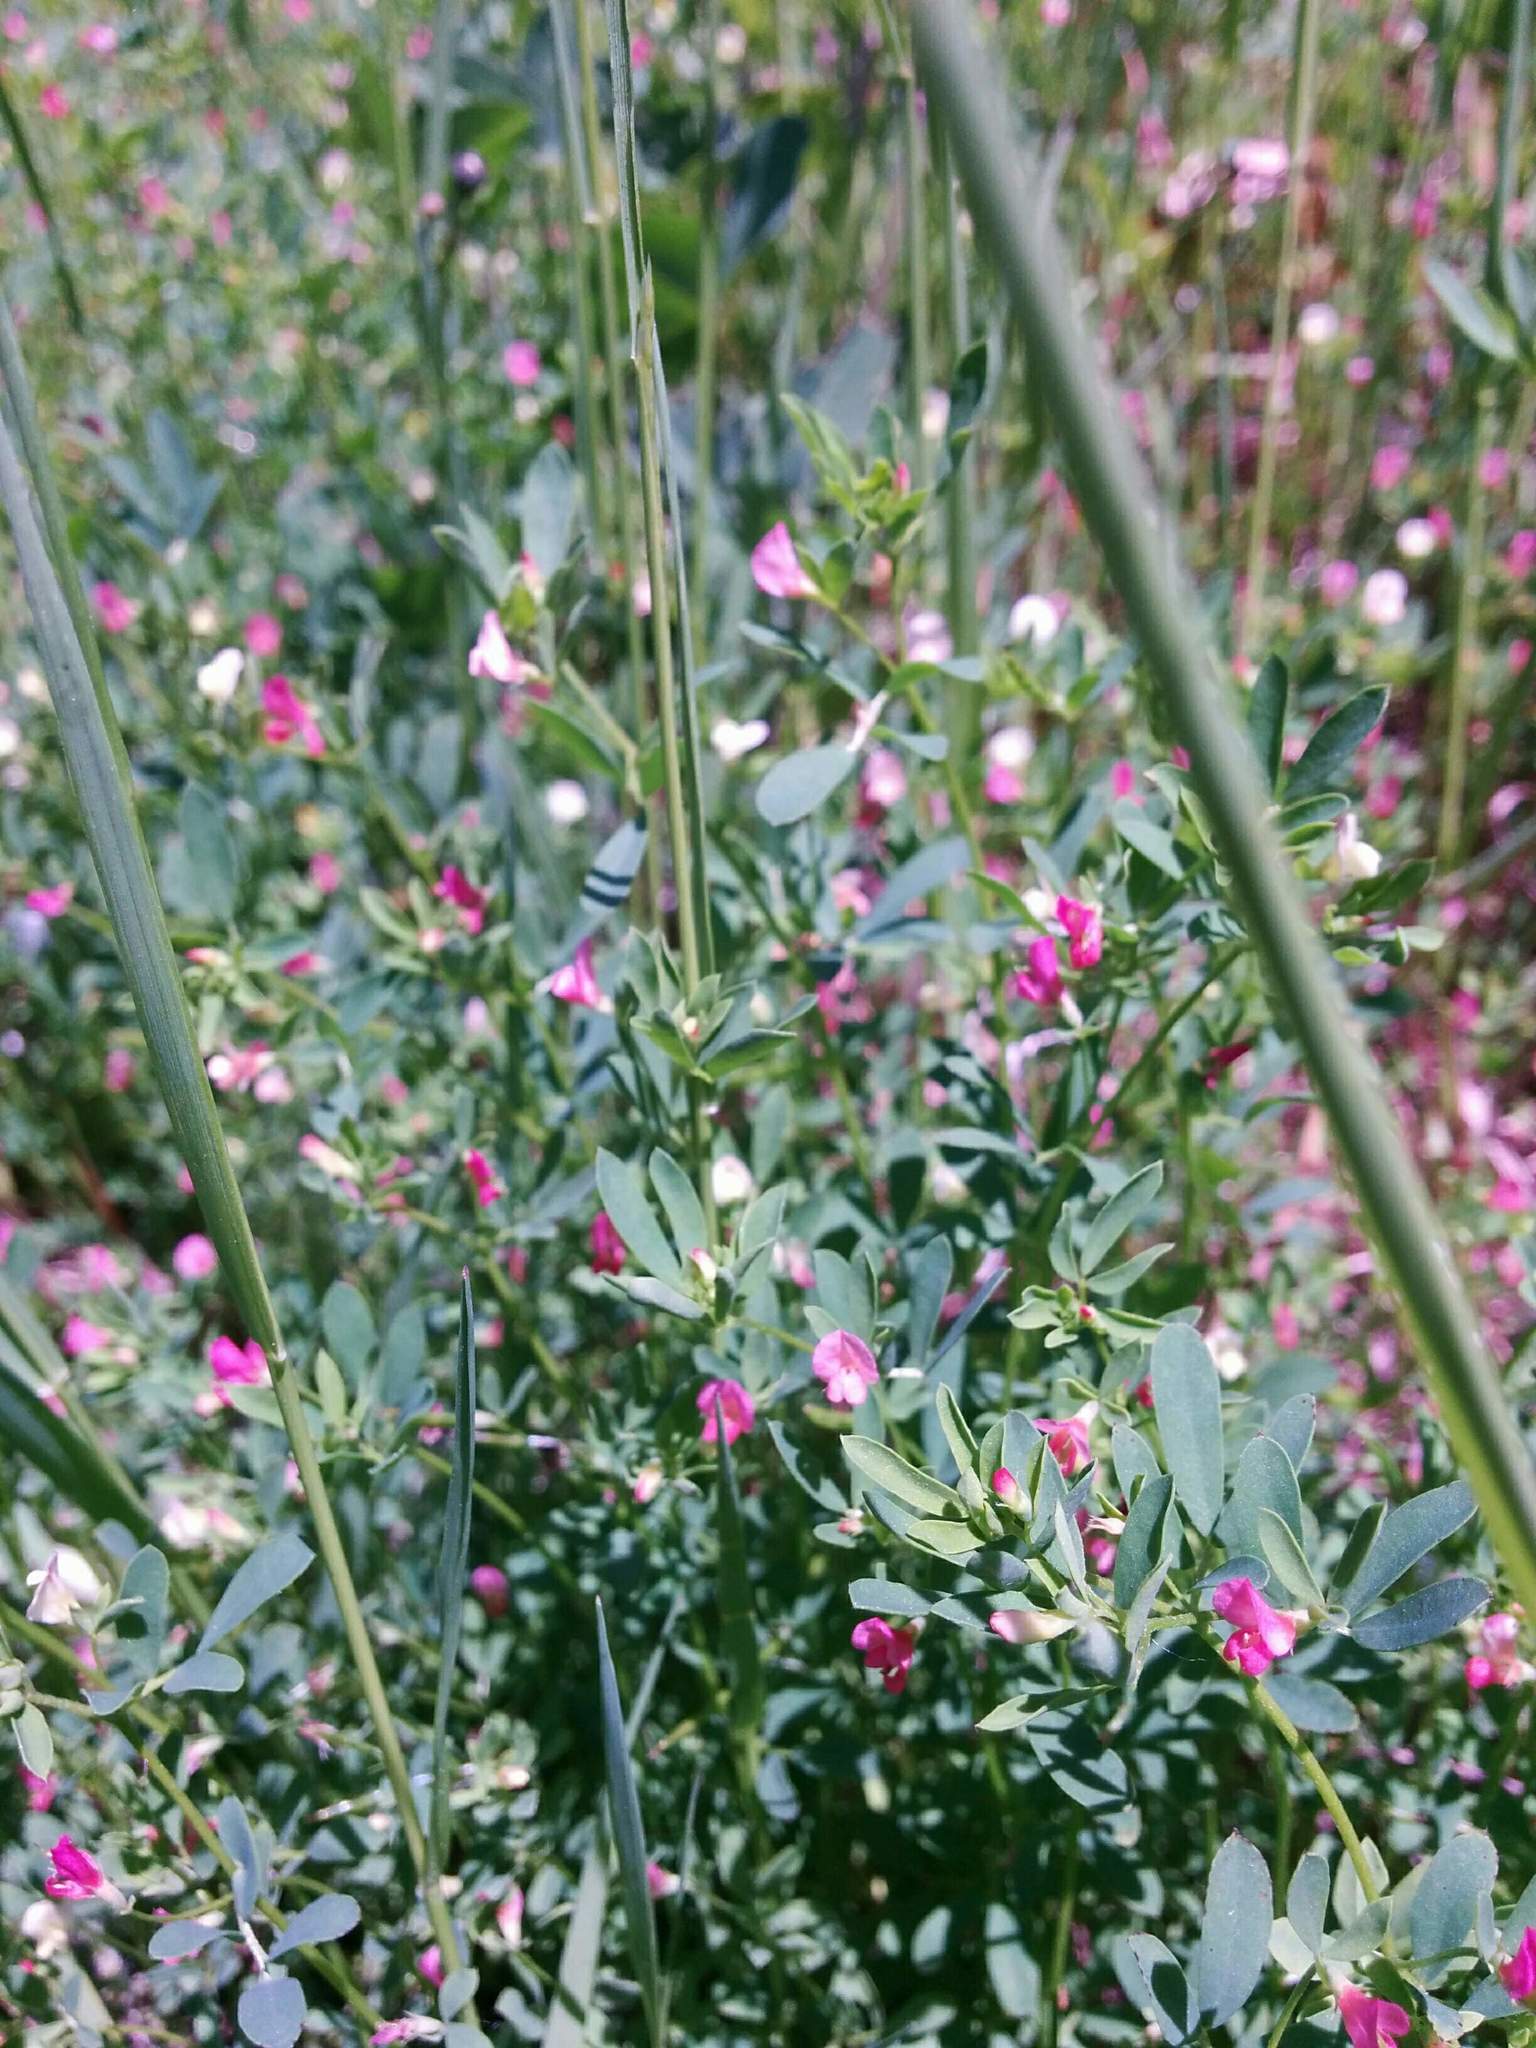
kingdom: Plantae
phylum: Tracheophyta
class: Magnoliopsida
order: Fabales
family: Fabaceae
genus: Acmispon
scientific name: Acmispon parviflorus
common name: Desert deer-vetch
